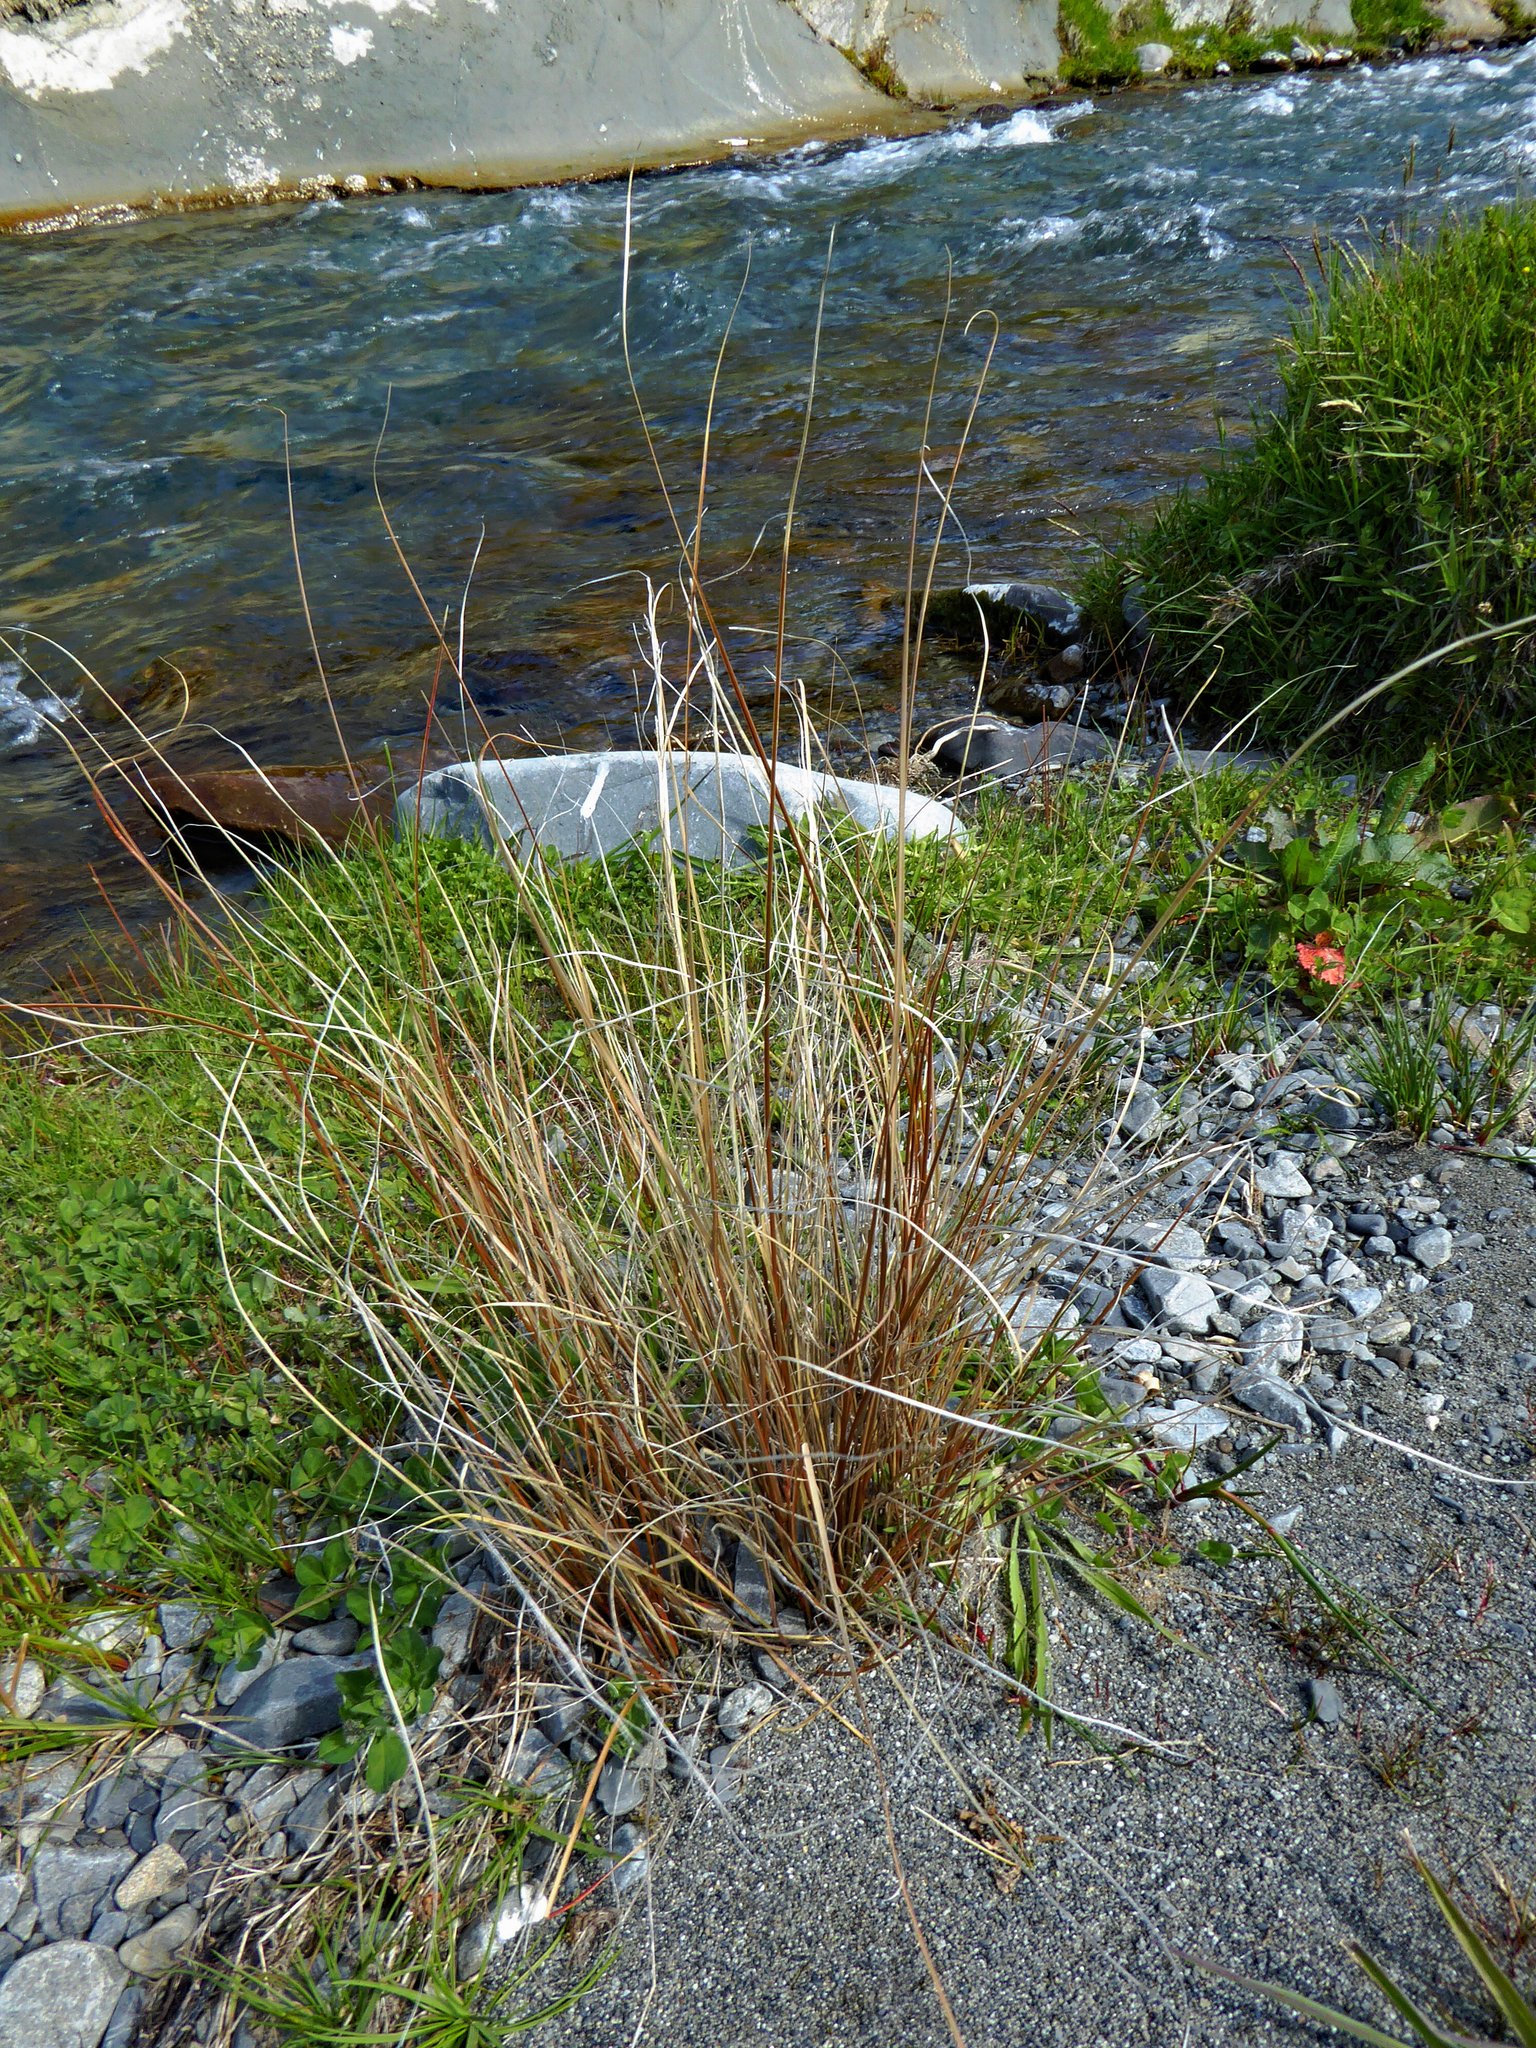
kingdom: Plantae
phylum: Tracheophyta
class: Liliopsida
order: Poales
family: Cyperaceae
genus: Carex
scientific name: Carex buchananii
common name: Leatherleaf sedge
